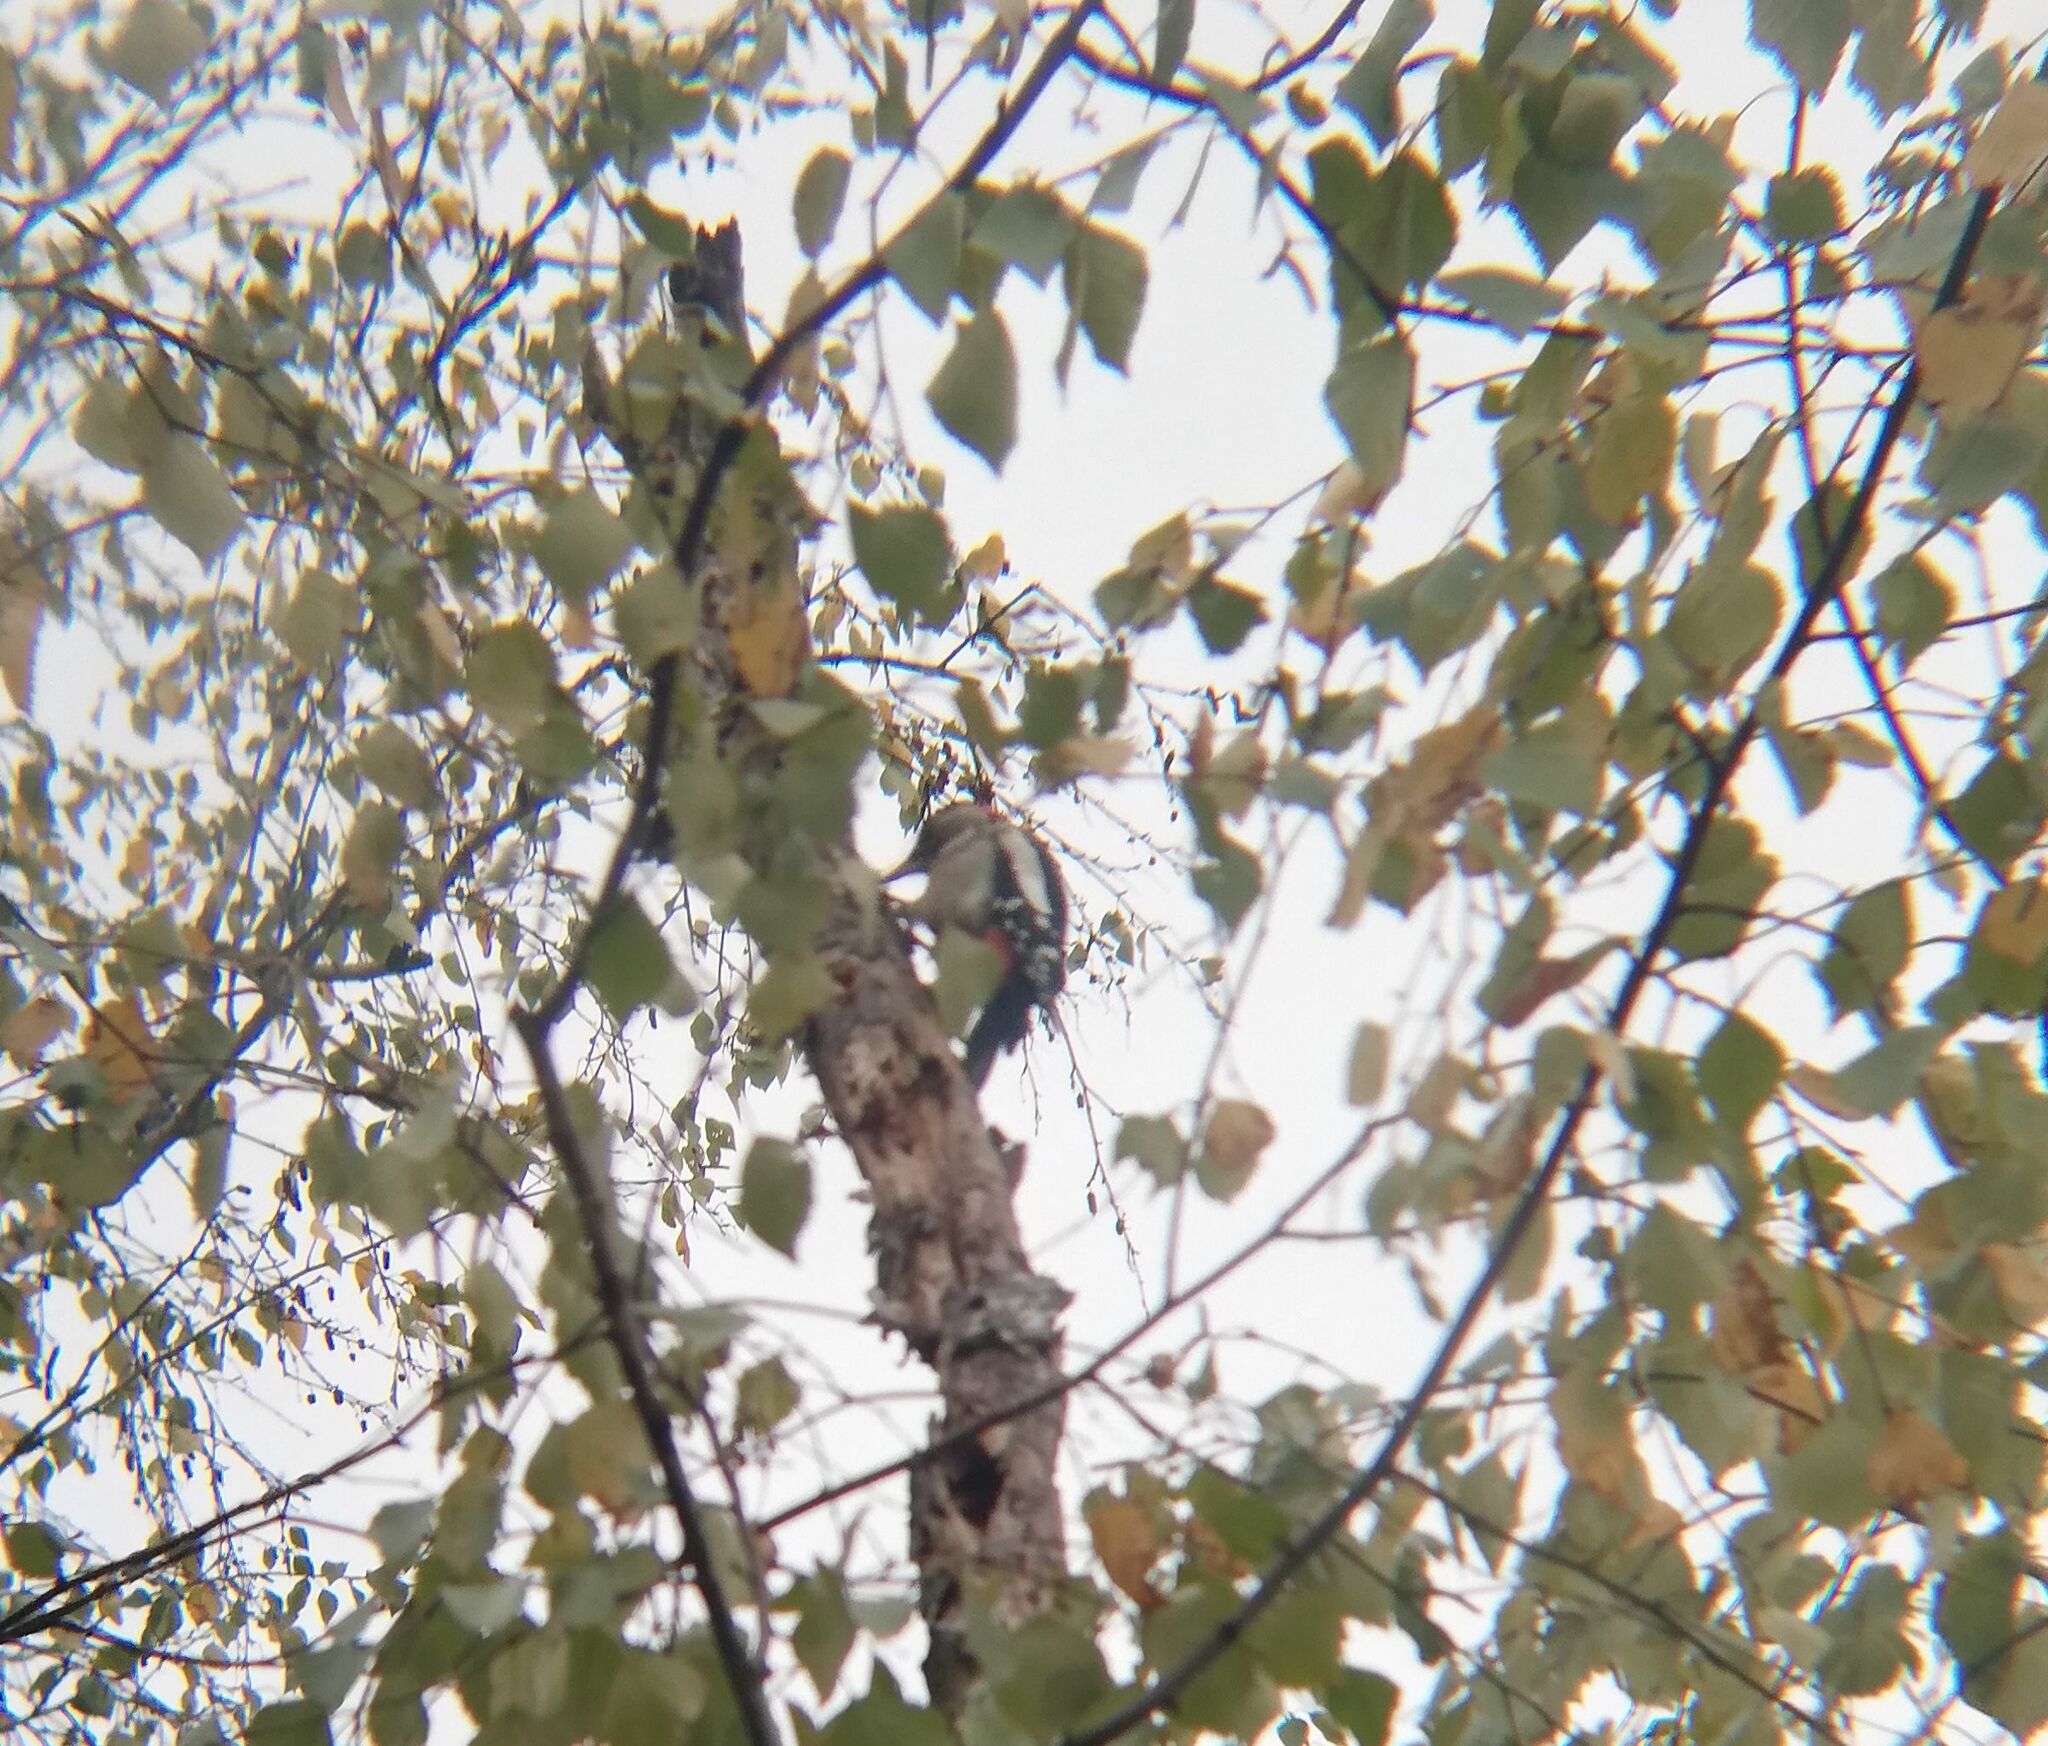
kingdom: Animalia
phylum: Chordata
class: Aves
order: Piciformes
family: Picidae
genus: Dendrocopos
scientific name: Dendrocopos major
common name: Great spotted woodpecker
